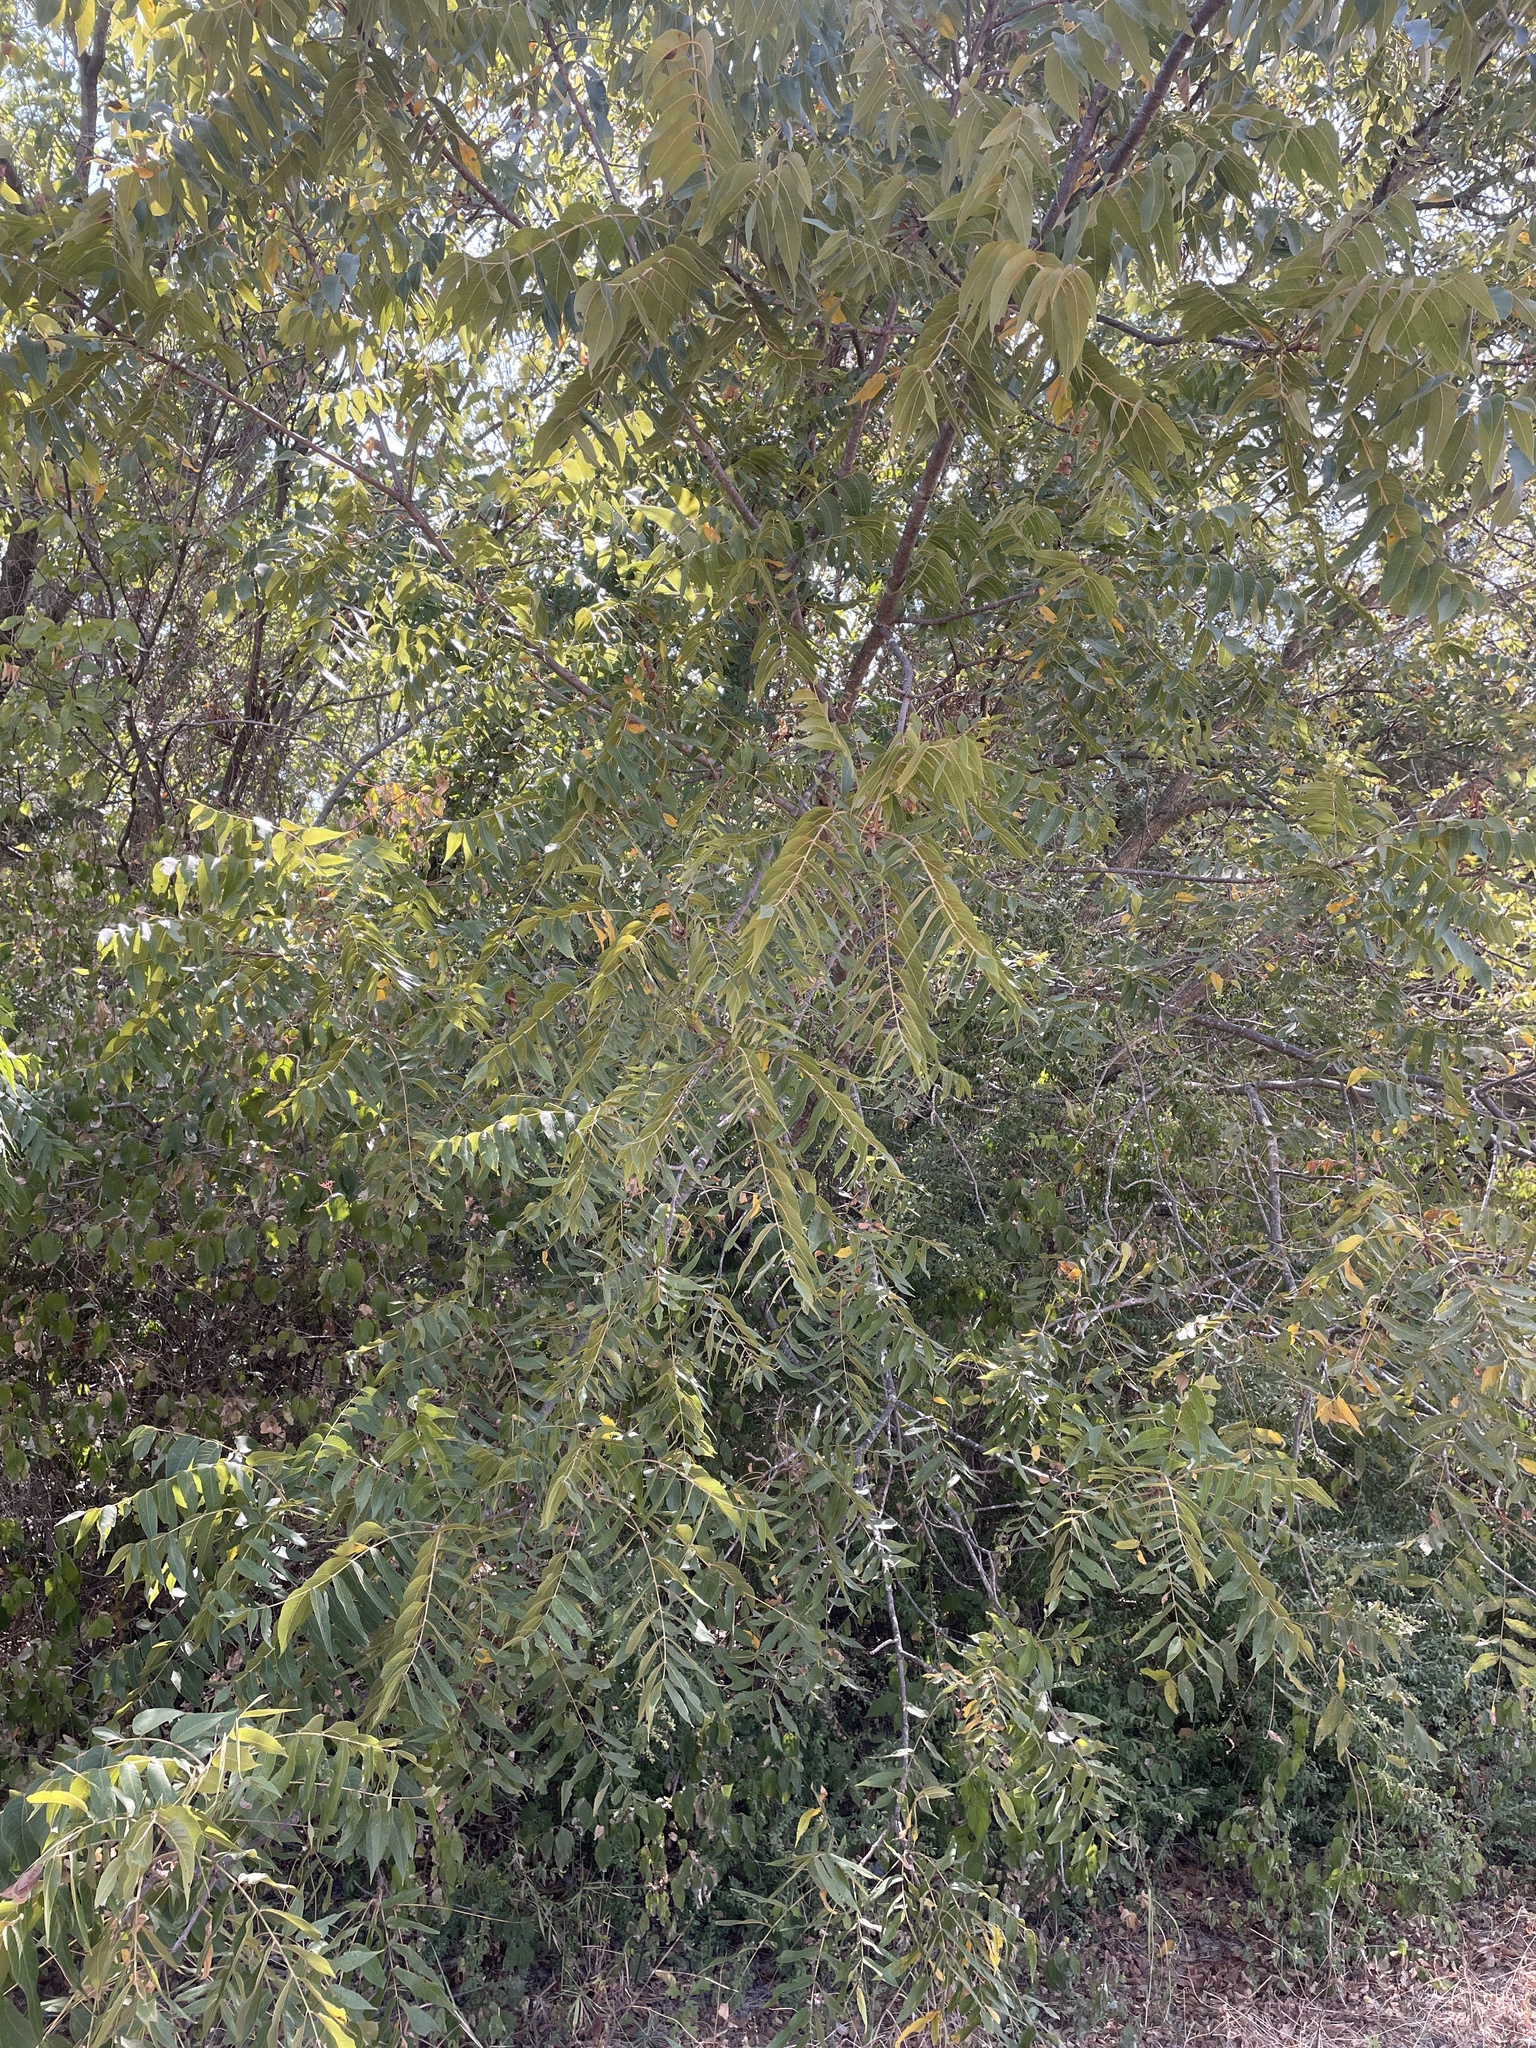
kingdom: Plantae
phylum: Tracheophyta
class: Magnoliopsida
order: Fagales
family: Juglandaceae
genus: Juglans
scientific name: Juglans nigra
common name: Black walnut
